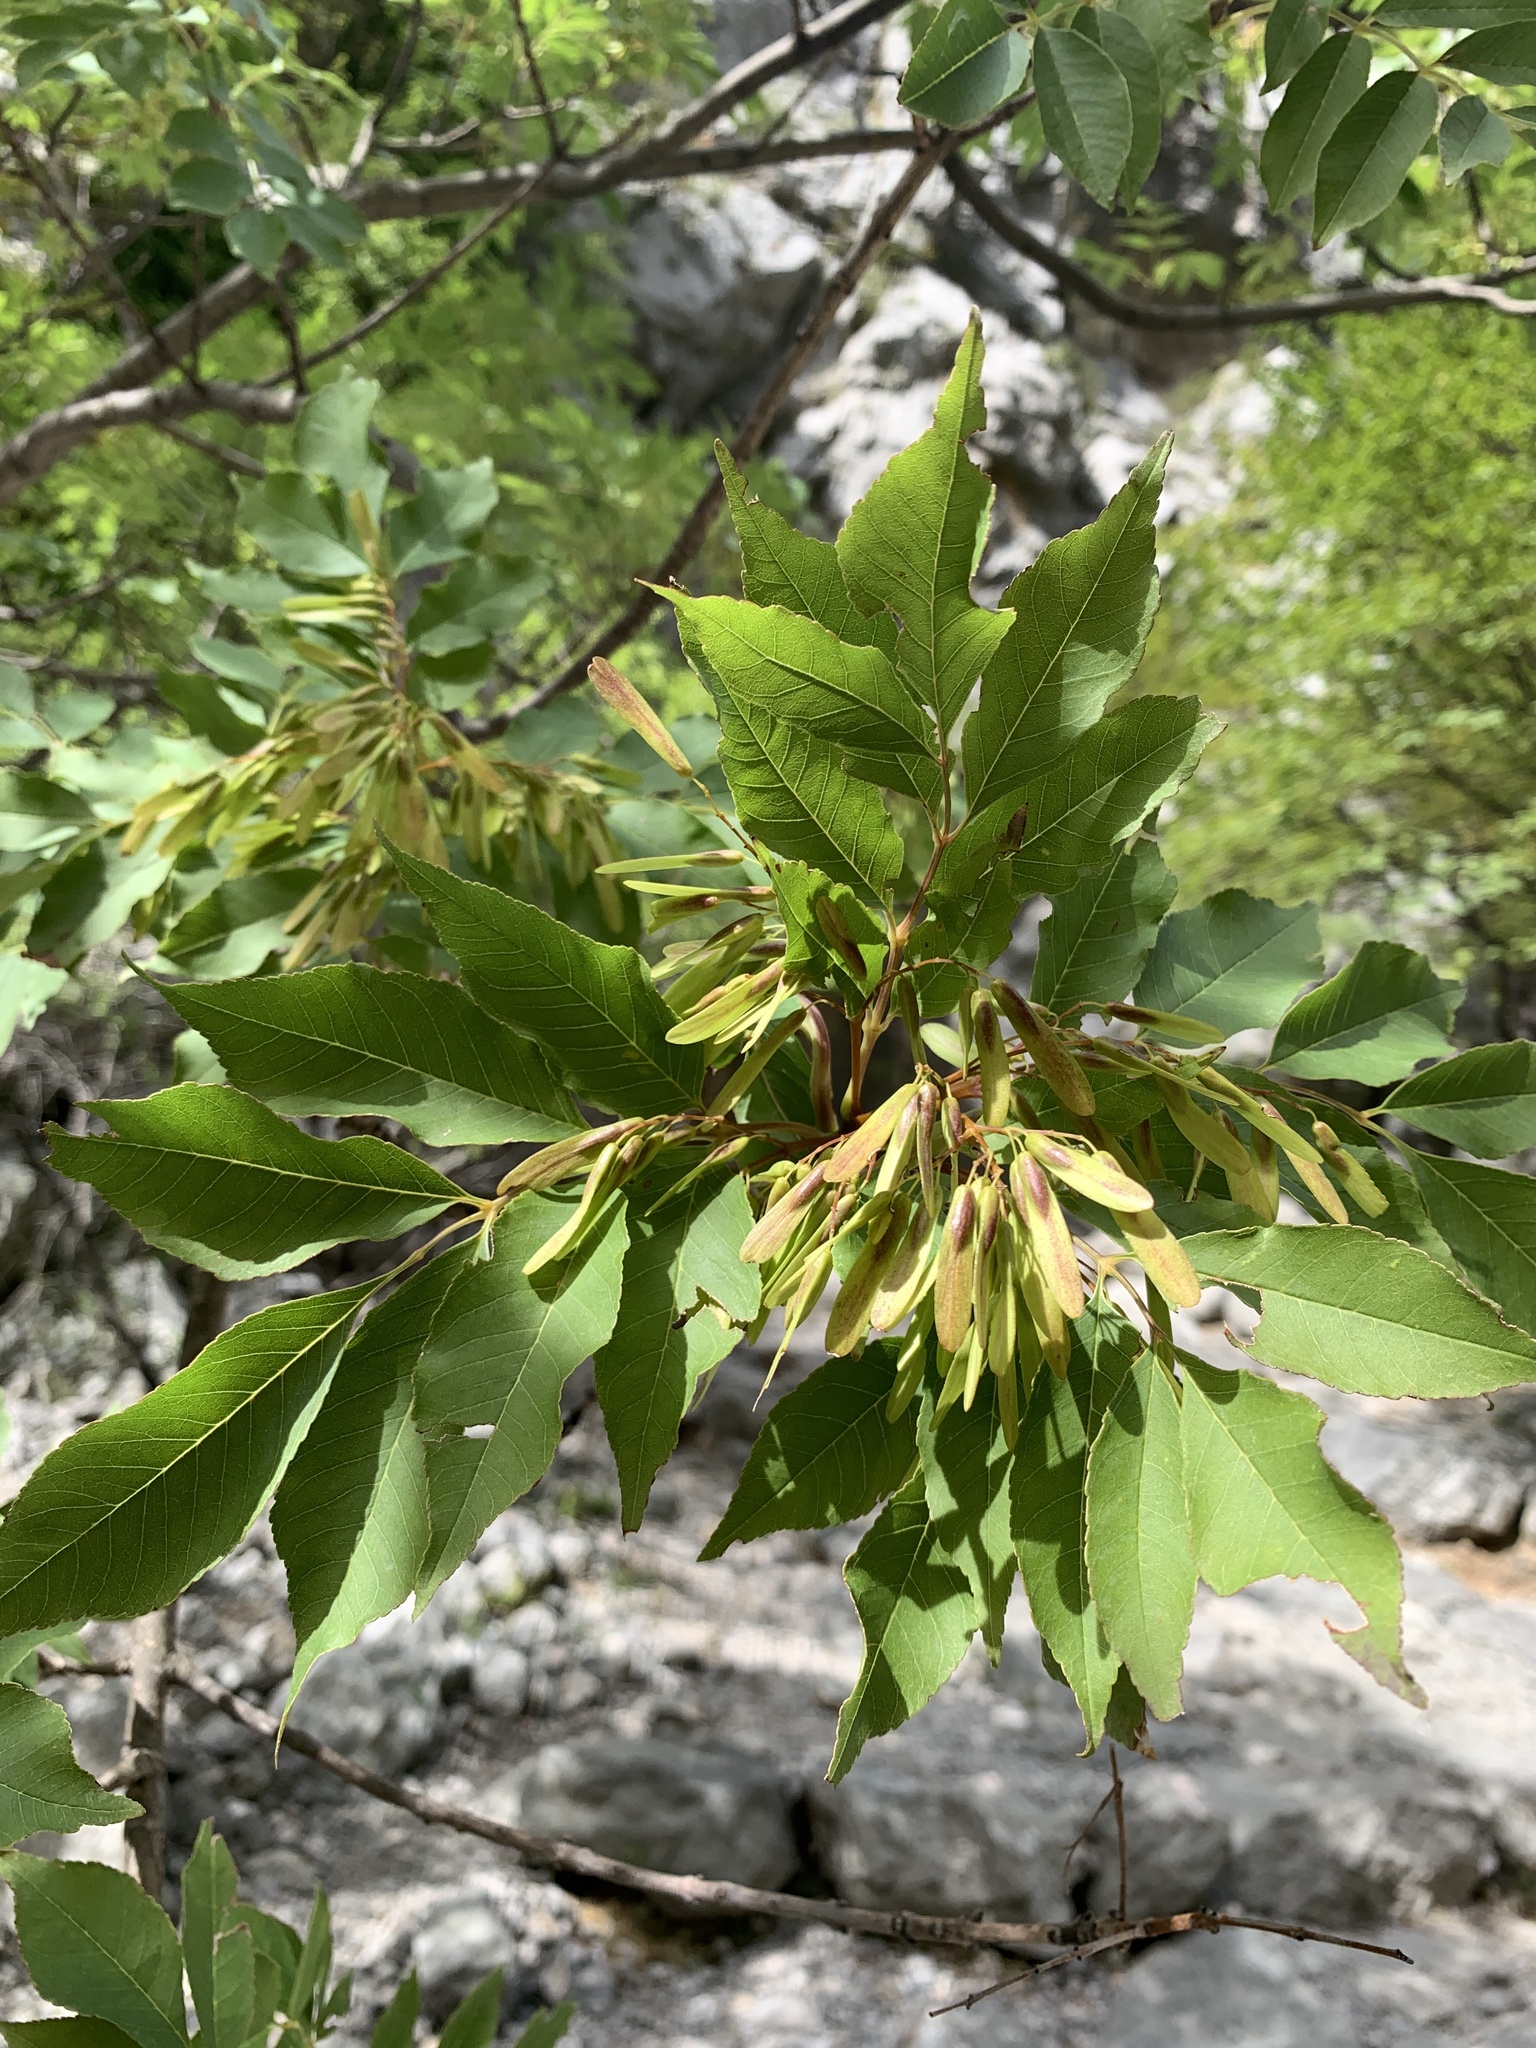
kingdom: Plantae
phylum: Tracheophyta
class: Magnoliopsida
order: Lamiales
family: Oleaceae
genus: Fraxinus
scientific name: Fraxinus ornus
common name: Manna ash
